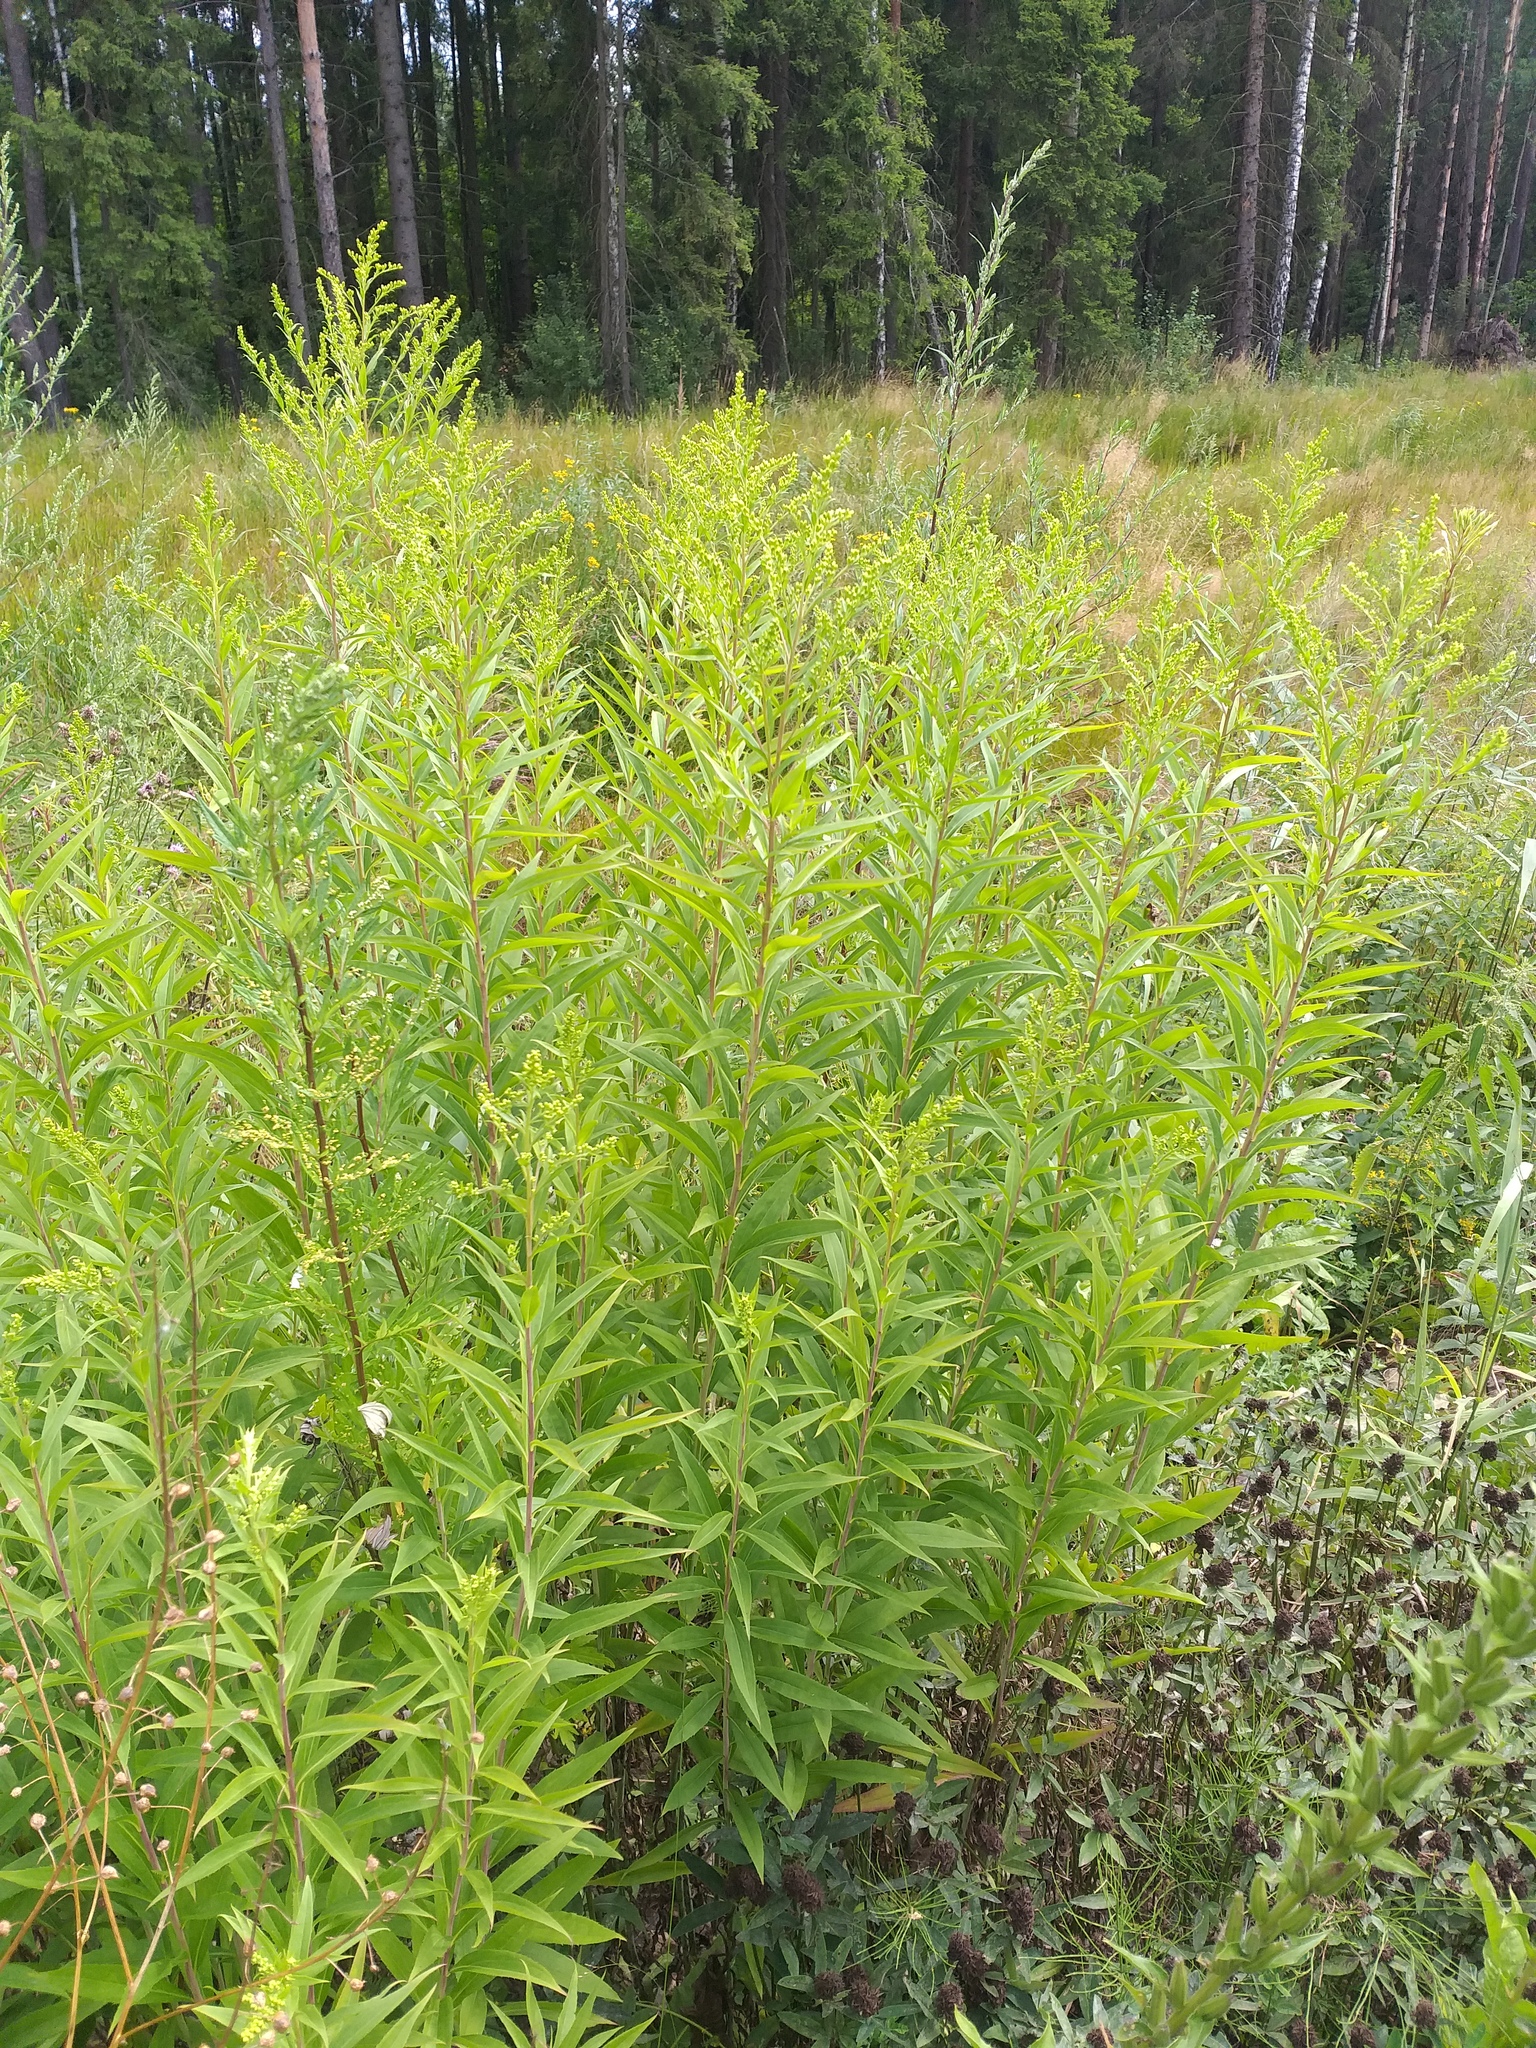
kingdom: Plantae
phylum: Tracheophyta
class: Magnoliopsida
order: Asterales
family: Asteraceae
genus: Solidago
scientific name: Solidago gigantea
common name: Giant goldenrod
